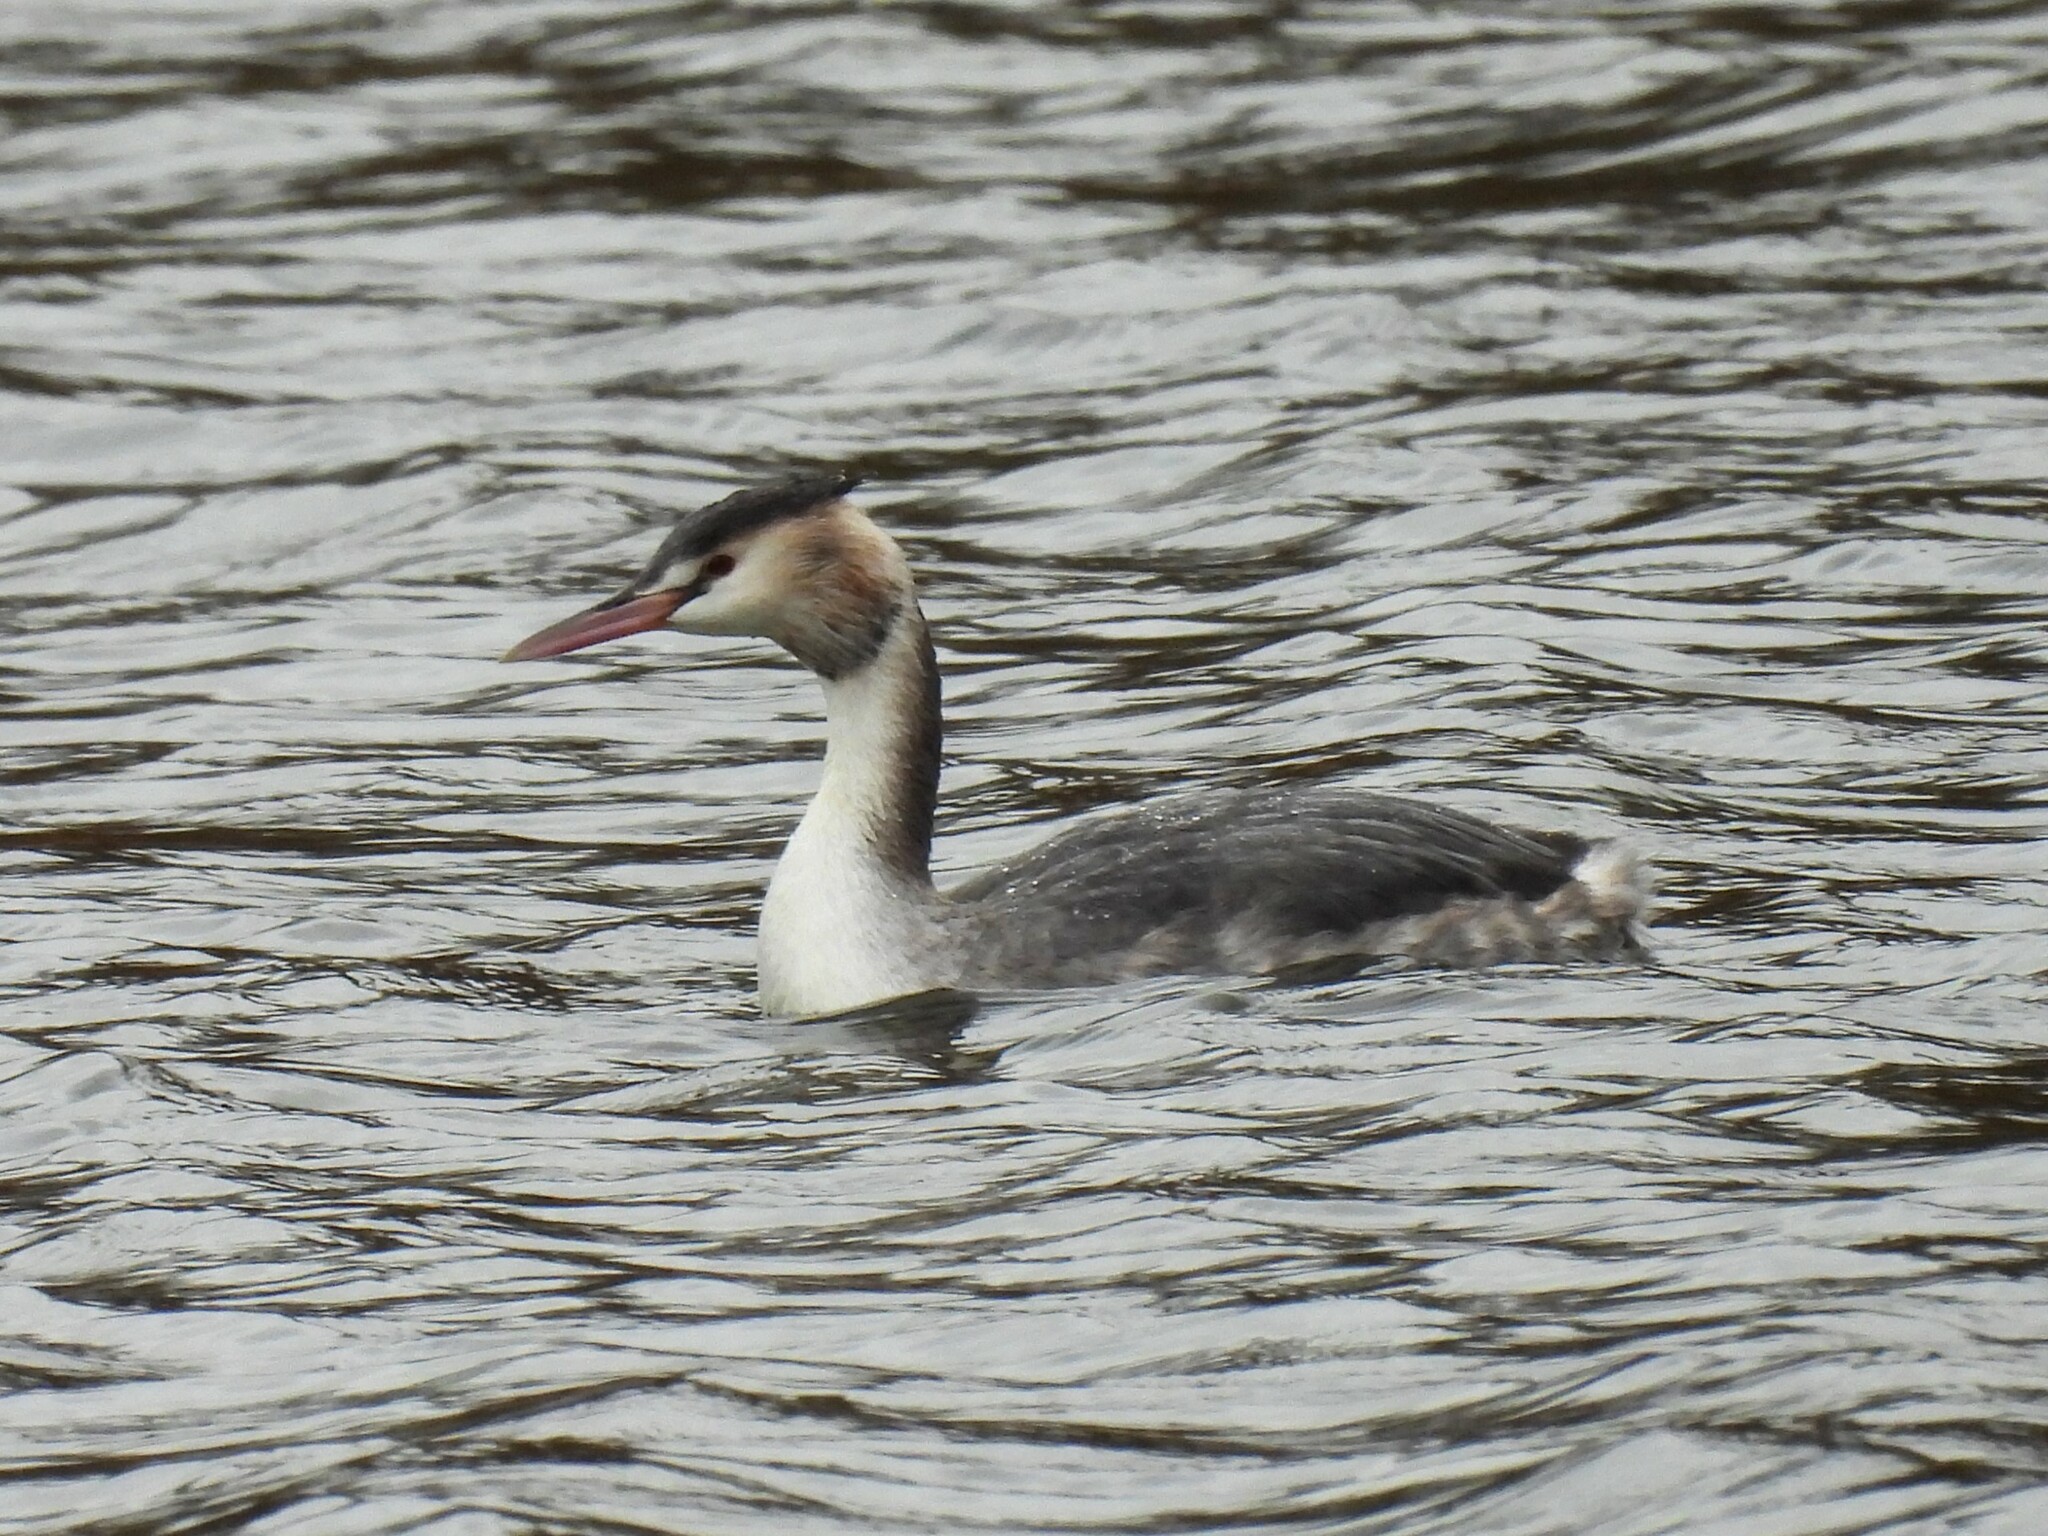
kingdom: Animalia
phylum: Chordata
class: Aves
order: Podicipediformes
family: Podicipedidae
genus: Podiceps
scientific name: Podiceps cristatus
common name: Great crested grebe
